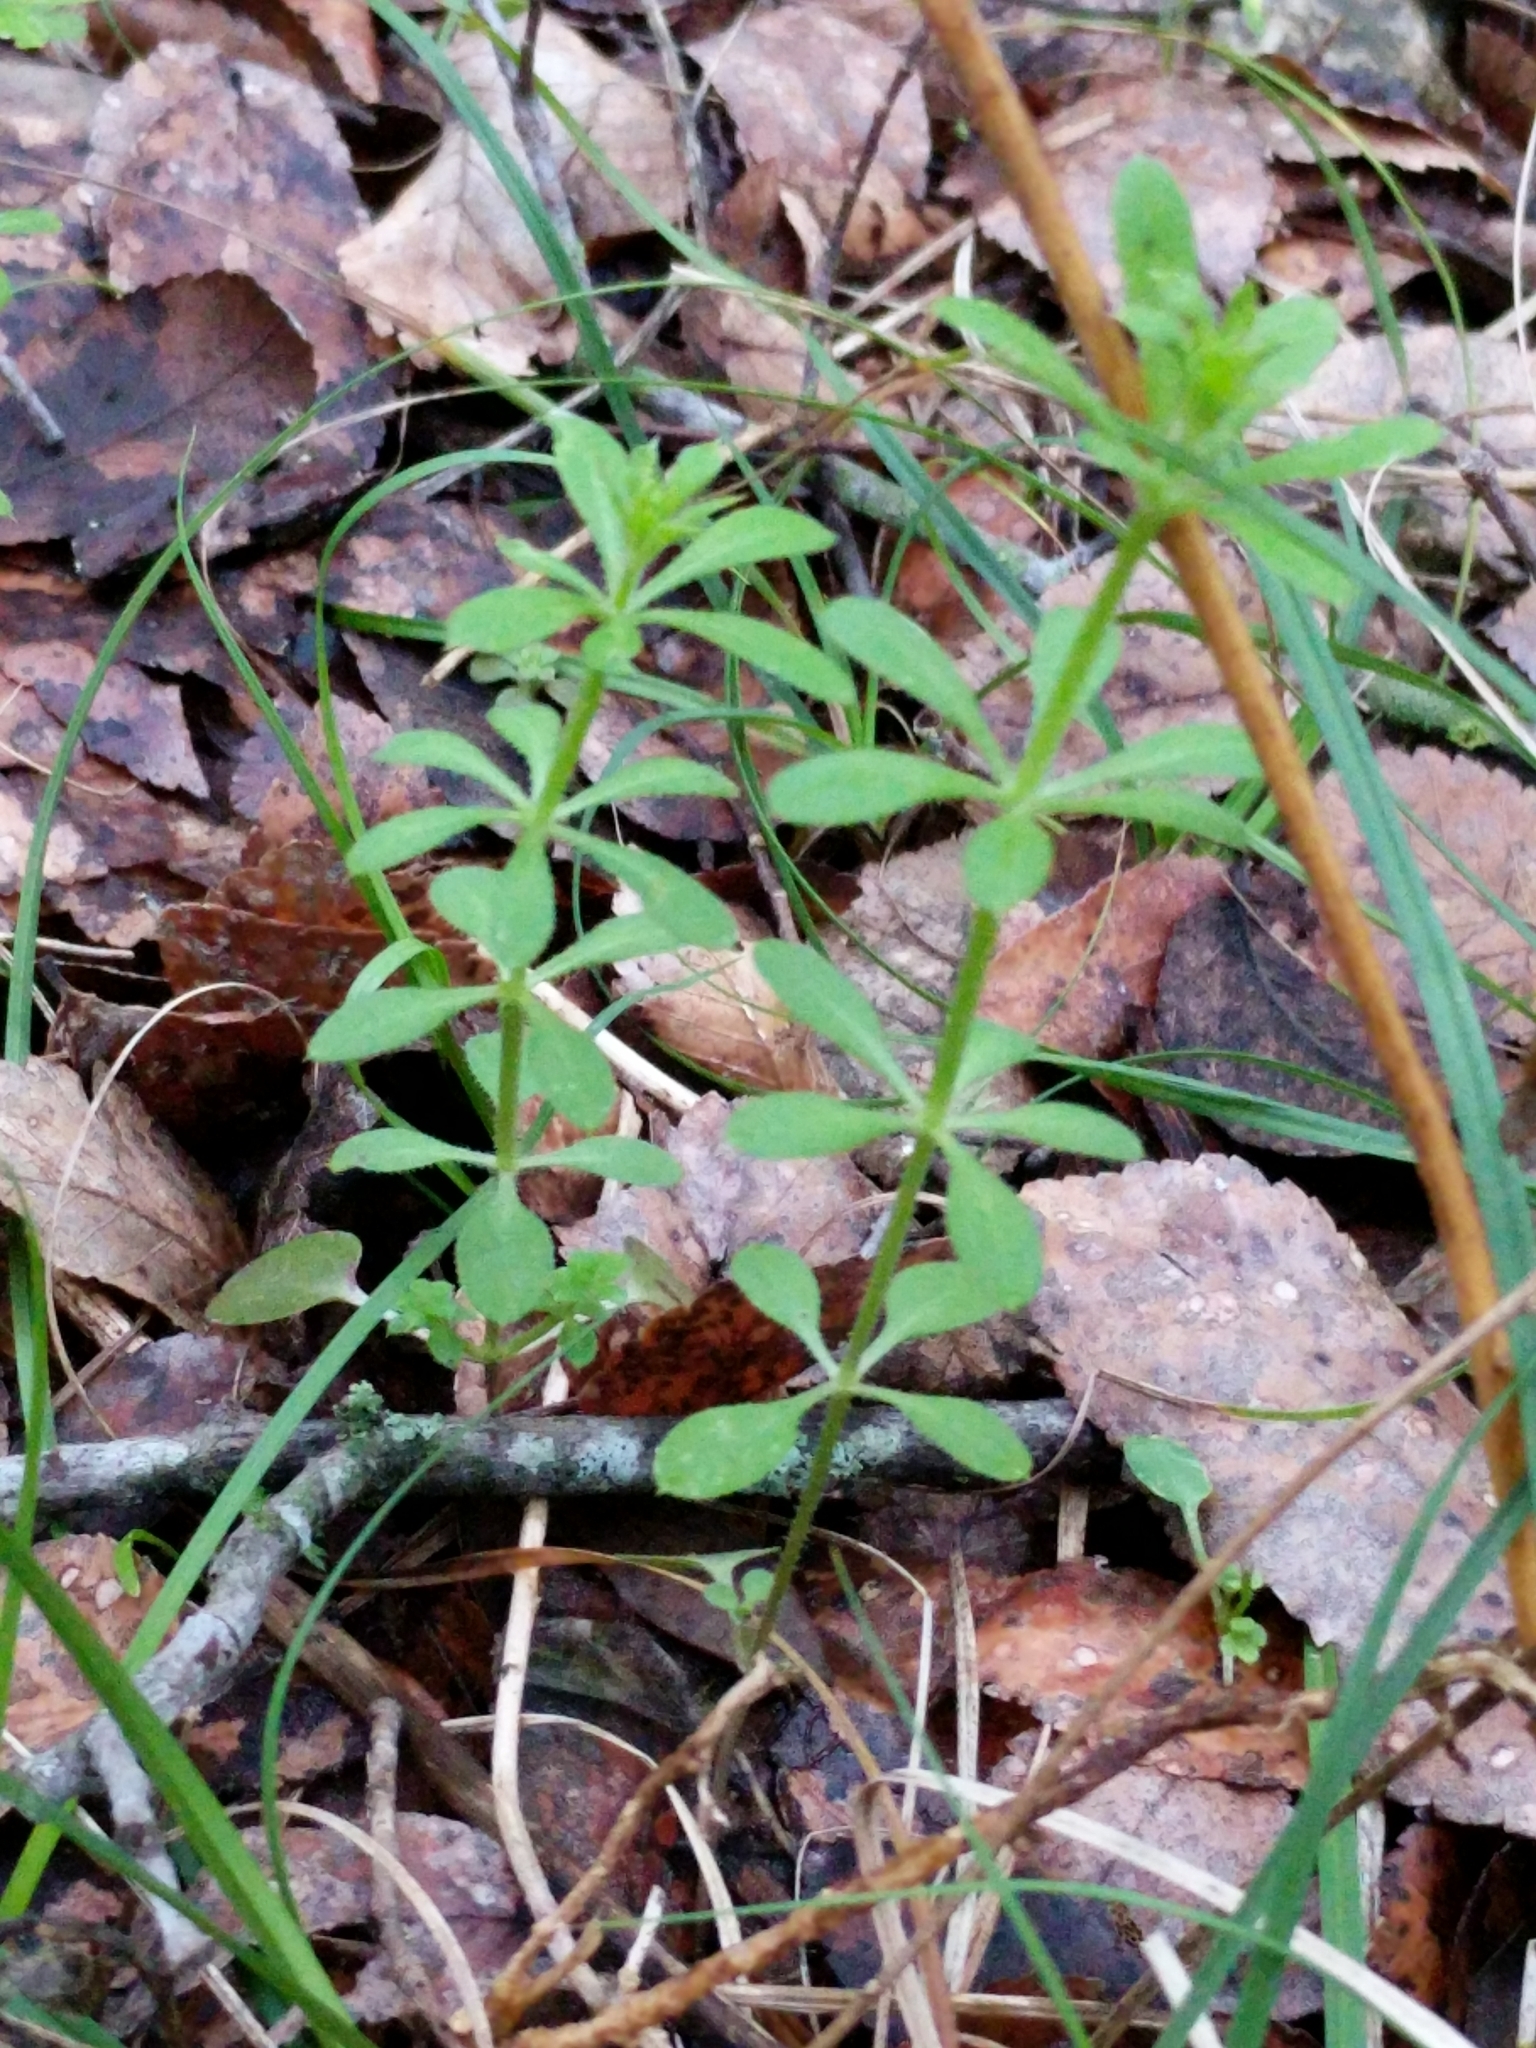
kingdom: Plantae
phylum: Tracheophyta
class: Magnoliopsida
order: Gentianales
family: Rubiaceae
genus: Galium
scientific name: Galium aparine
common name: Cleavers
